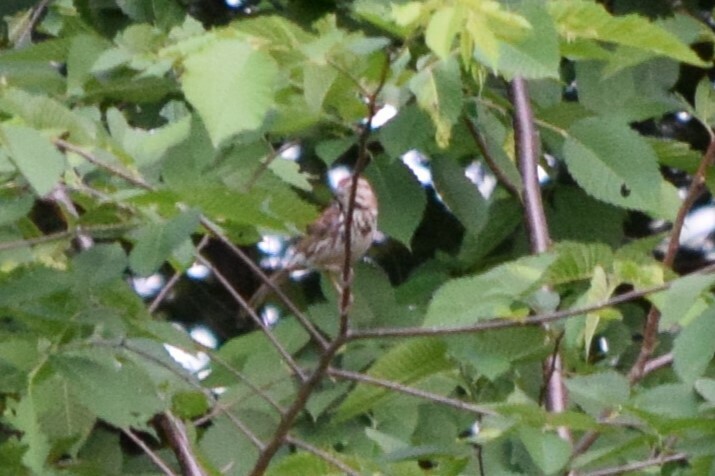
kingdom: Animalia
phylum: Chordata
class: Aves
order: Passeriformes
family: Passerellidae
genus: Melospiza
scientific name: Melospiza melodia
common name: Song sparrow
